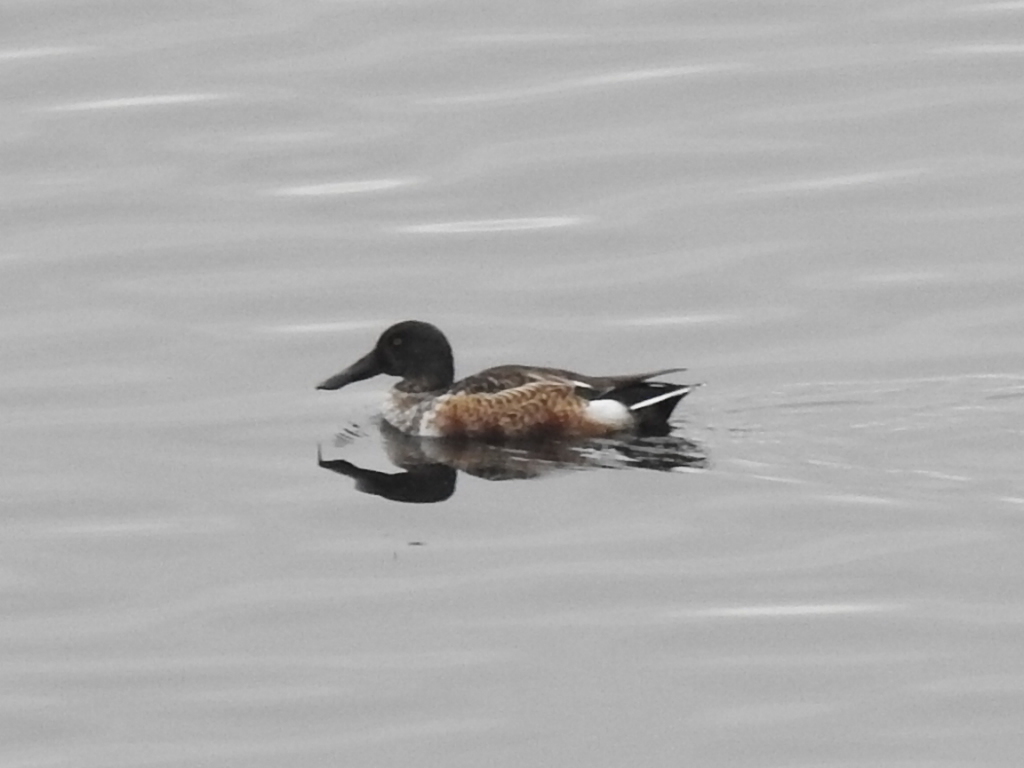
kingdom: Animalia
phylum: Chordata
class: Aves
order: Anseriformes
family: Anatidae
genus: Spatula
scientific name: Spatula clypeata
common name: Northern shoveler
